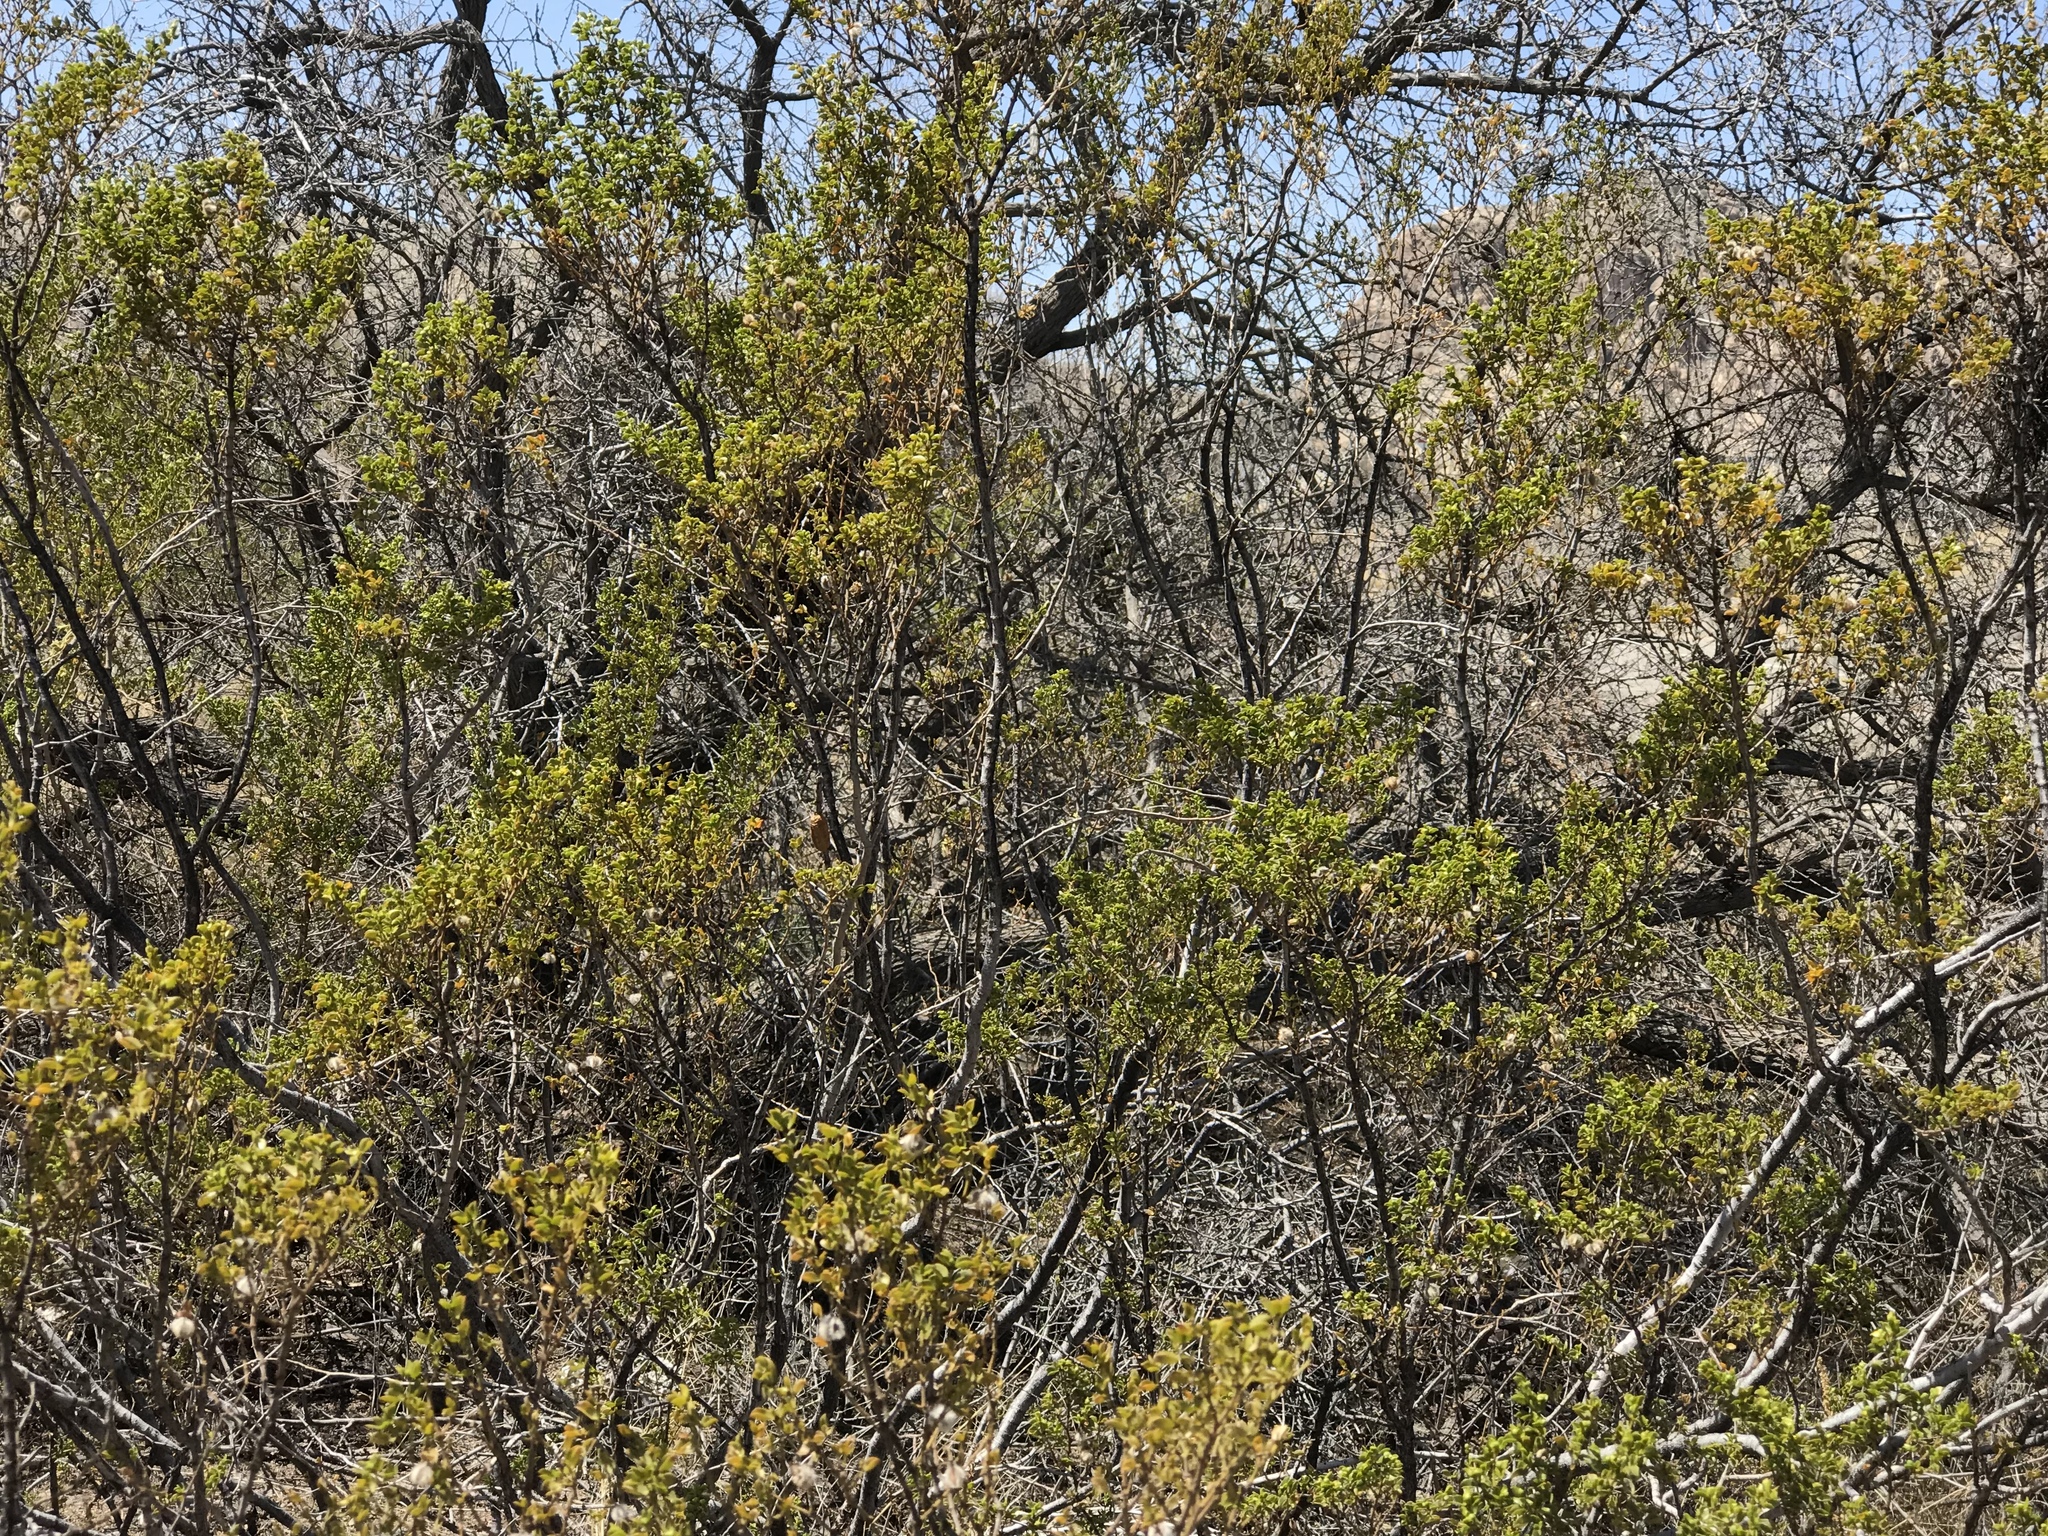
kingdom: Plantae
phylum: Tracheophyta
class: Magnoliopsida
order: Zygophyllales
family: Zygophyllaceae
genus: Larrea
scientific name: Larrea tridentata
